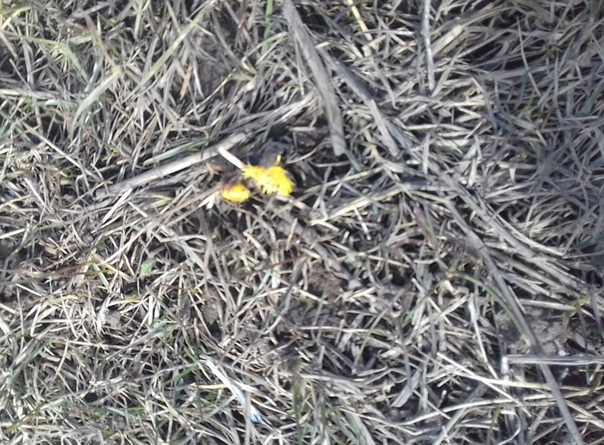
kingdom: Plantae
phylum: Tracheophyta
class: Magnoliopsida
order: Asterales
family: Asteraceae
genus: Tussilago
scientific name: Tussilago farfara
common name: Coltsfoot
